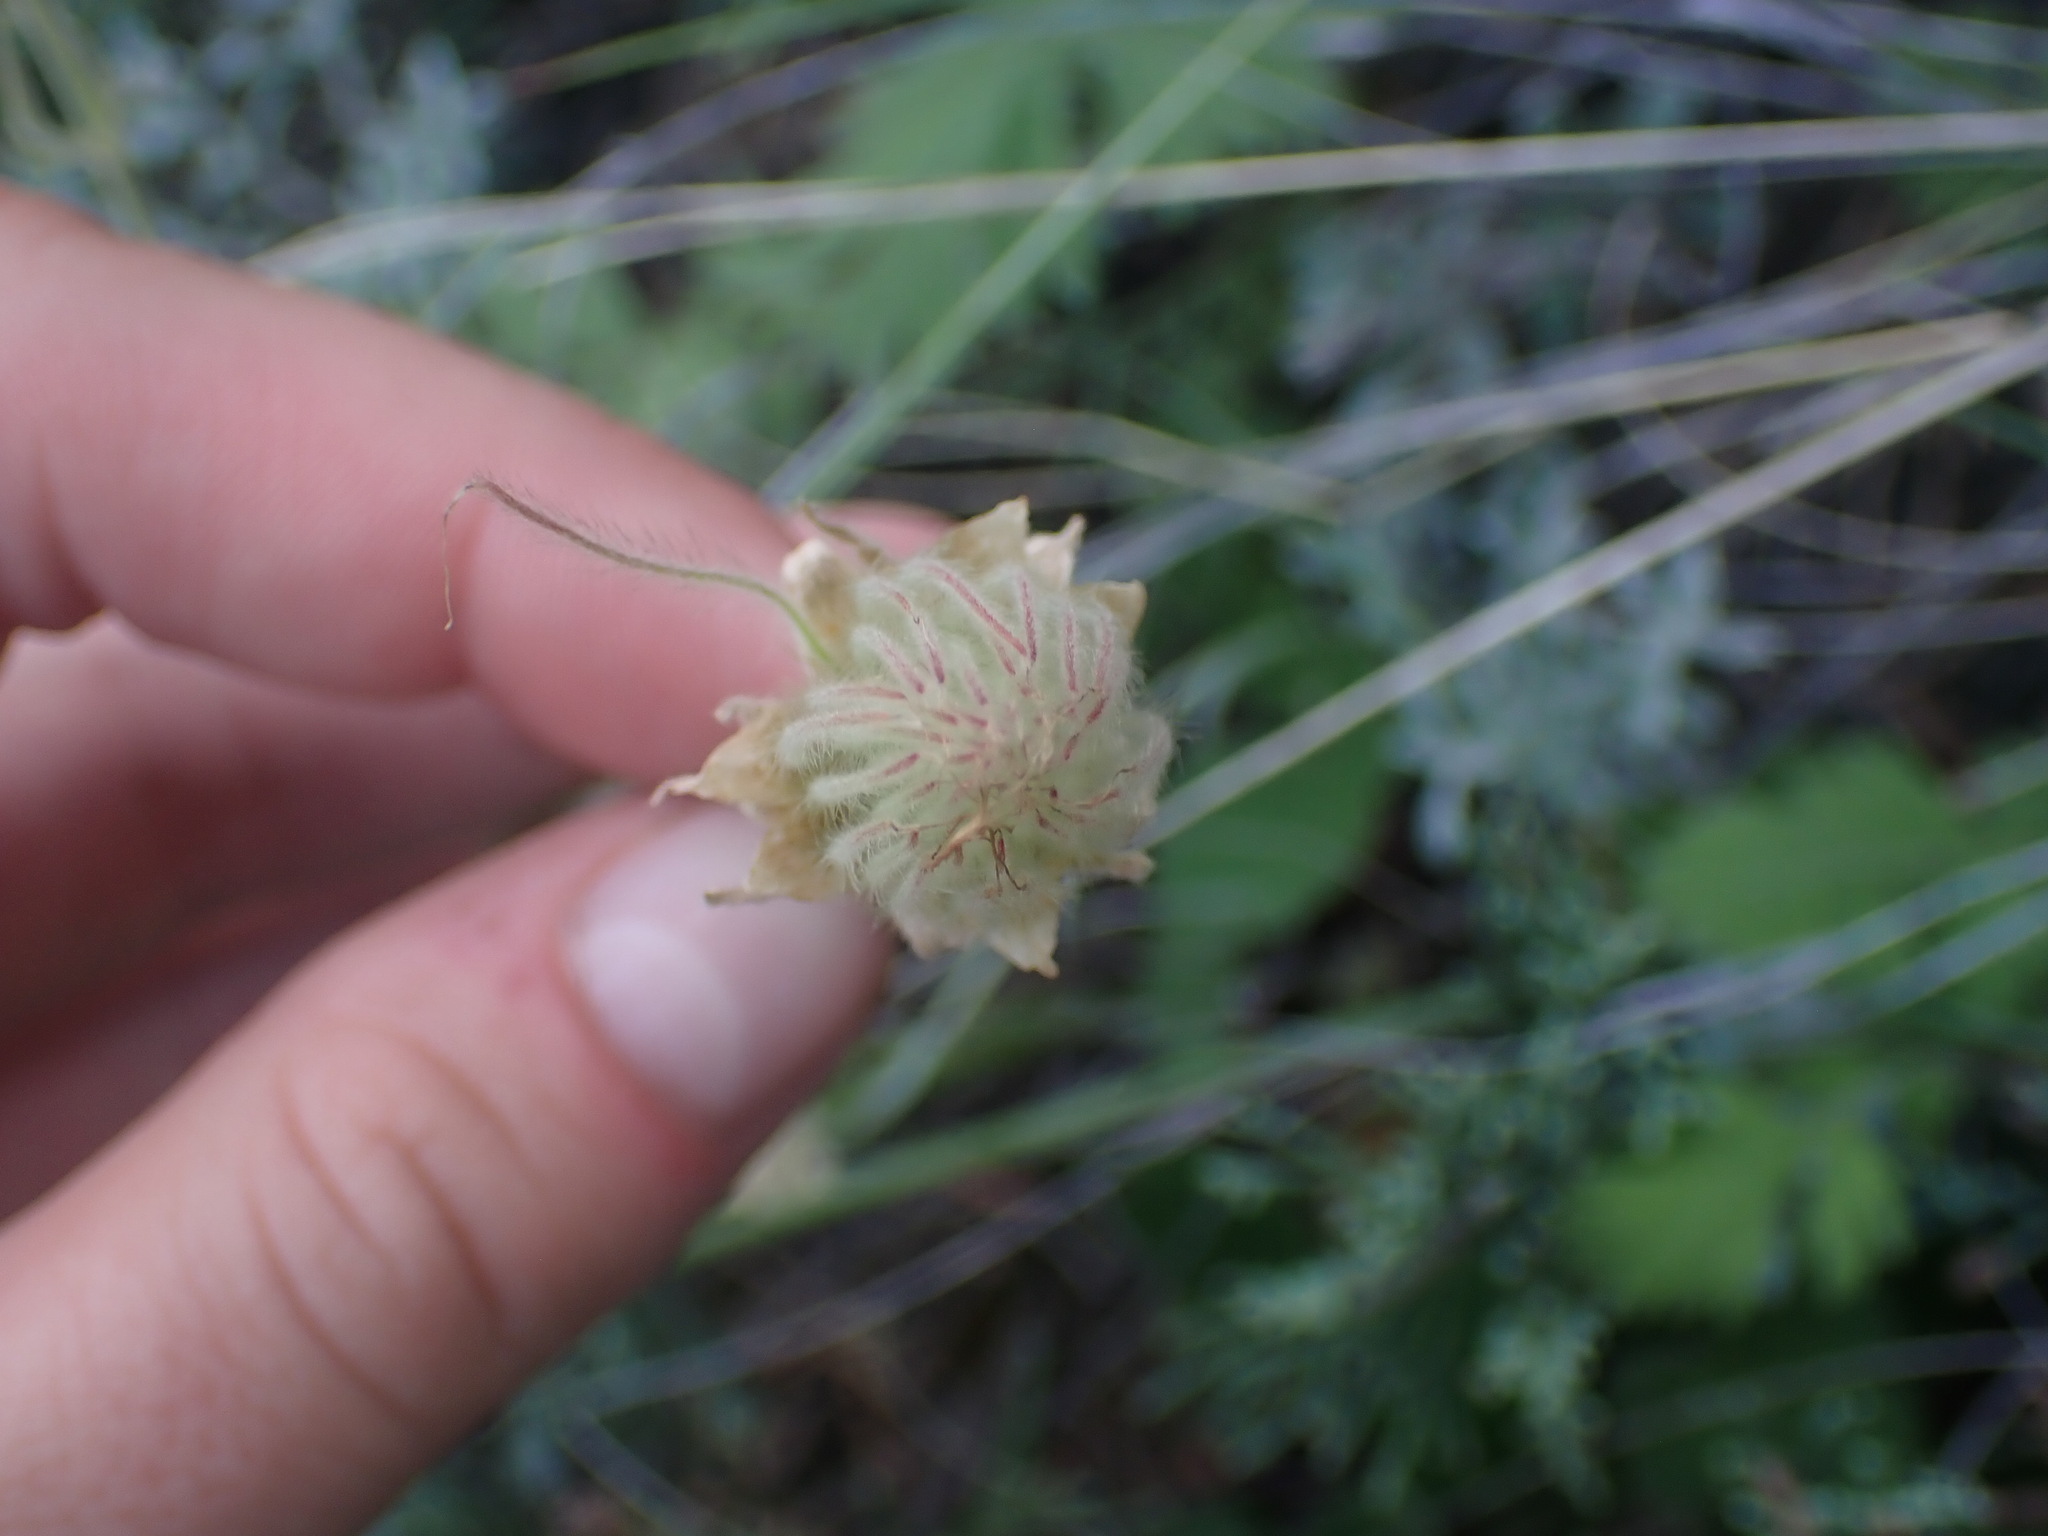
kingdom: Plantae
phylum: Tracheophyta
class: Magnoliopsida
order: Rosales
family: Rosaceae
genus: Geum
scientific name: Geum triflorum
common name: Old man's whiskers
